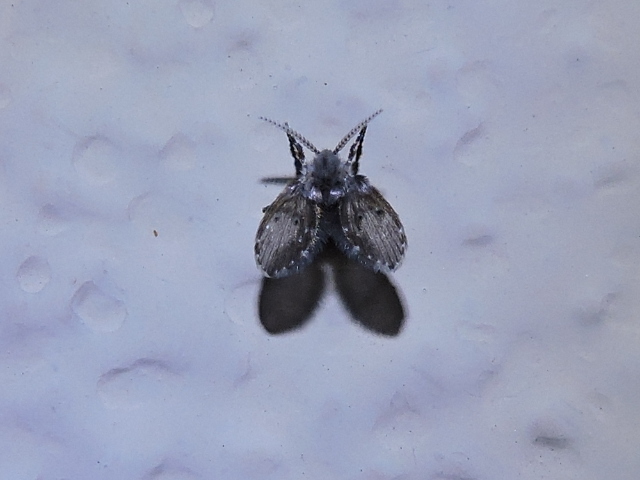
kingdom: Animalia
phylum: Arthropoda
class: Insecta
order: Diptera
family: Psychodidae
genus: Clogmia
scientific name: Clogmia albipunctatus
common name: White-spotted moth fly
